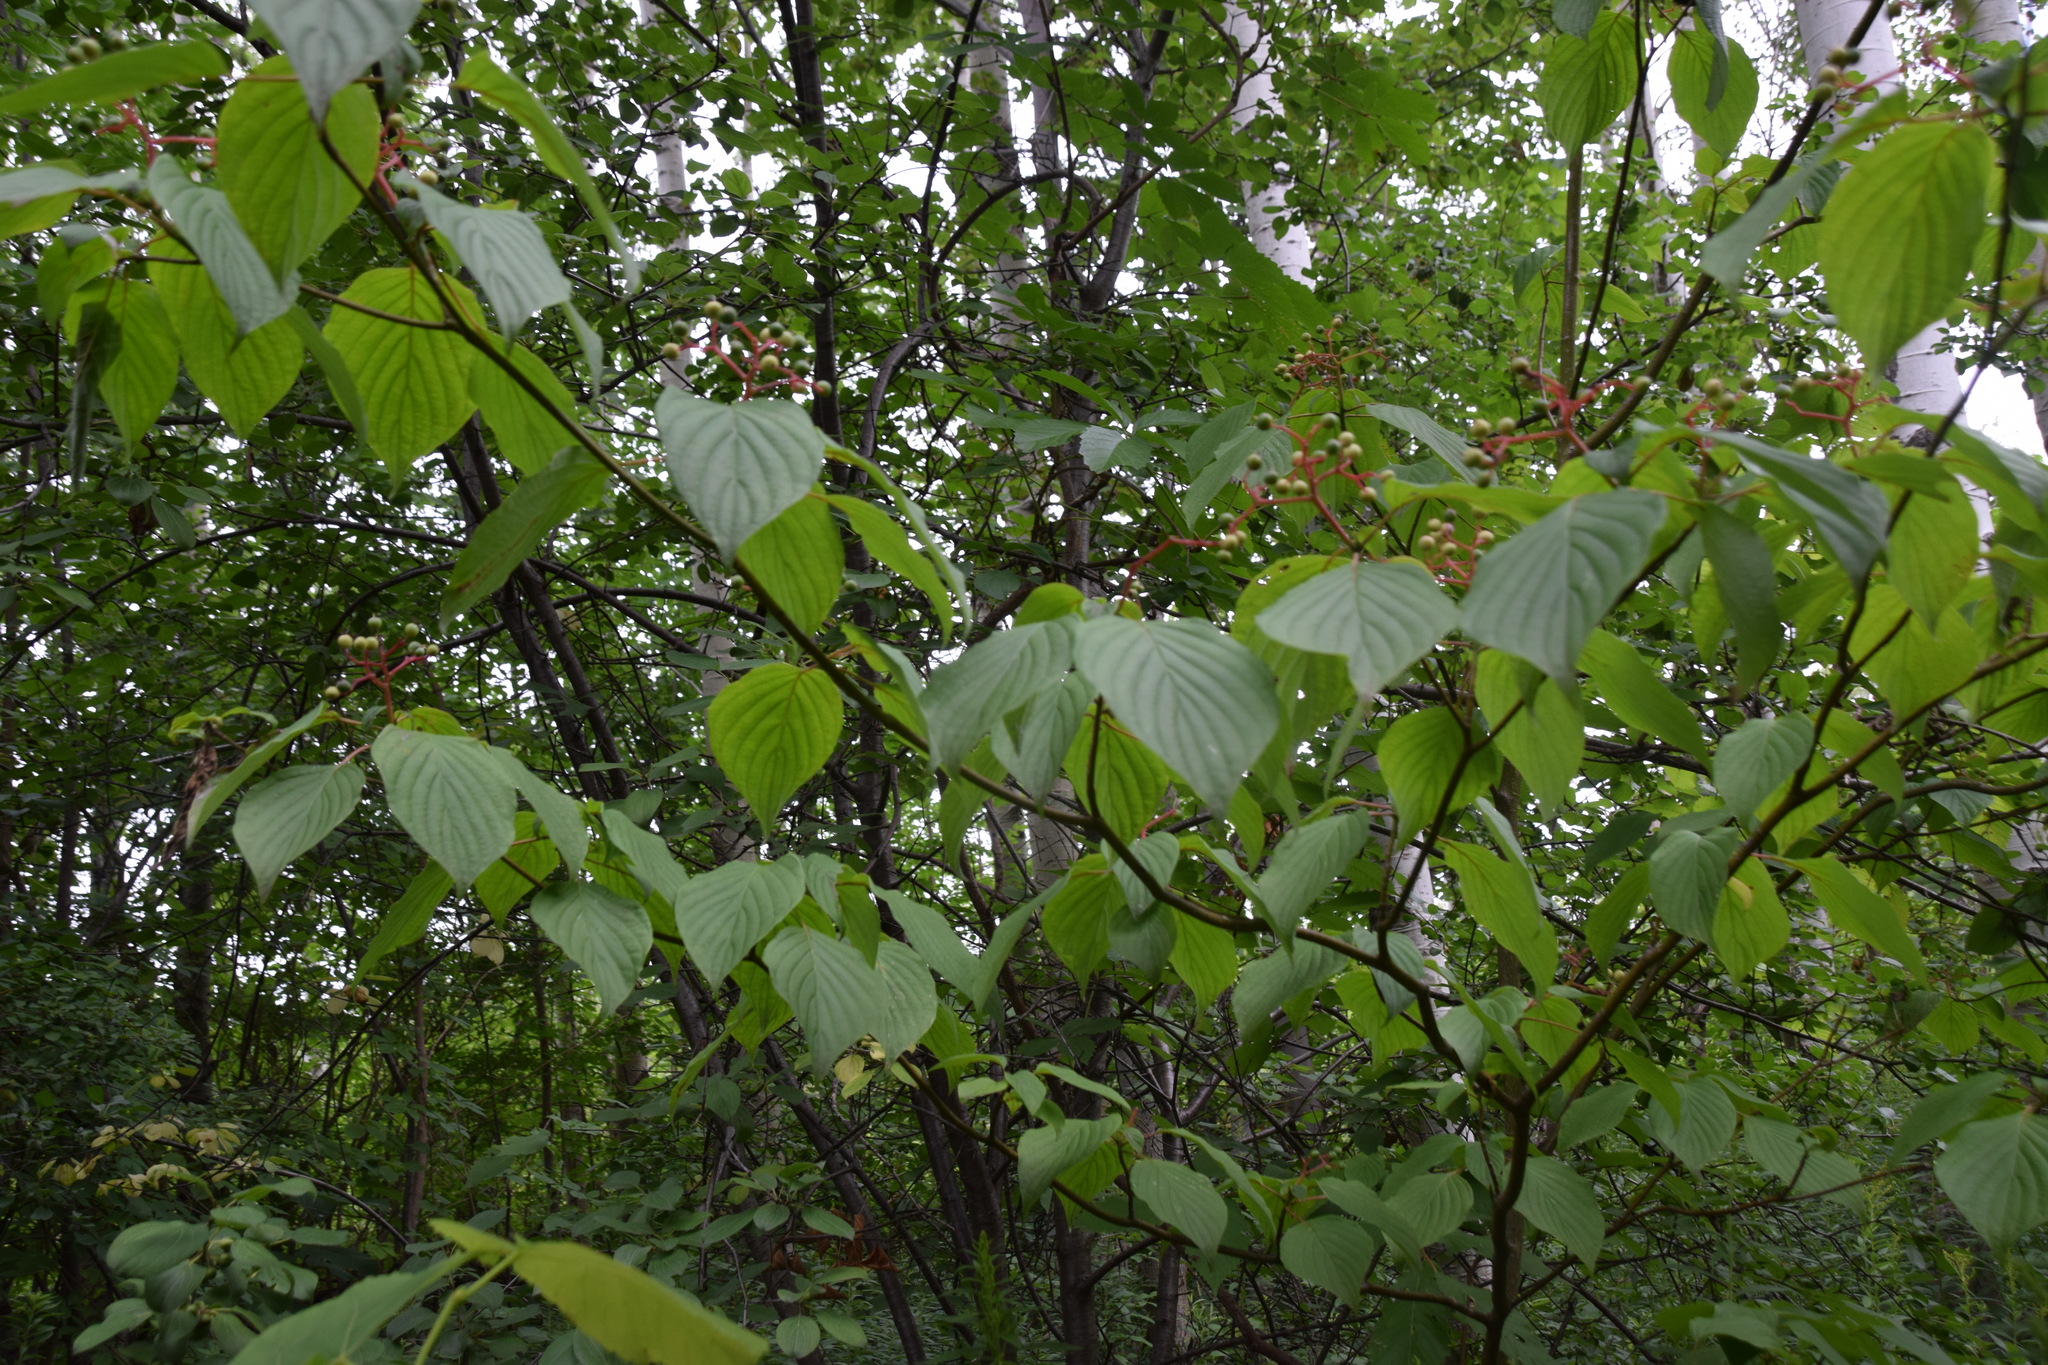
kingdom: Plantae
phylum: Tracheophyta
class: Magnoliopsida
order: Cornales
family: Cornaceae
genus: Cornus
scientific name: Cornus alternifolia
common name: Pagoda dogwood
